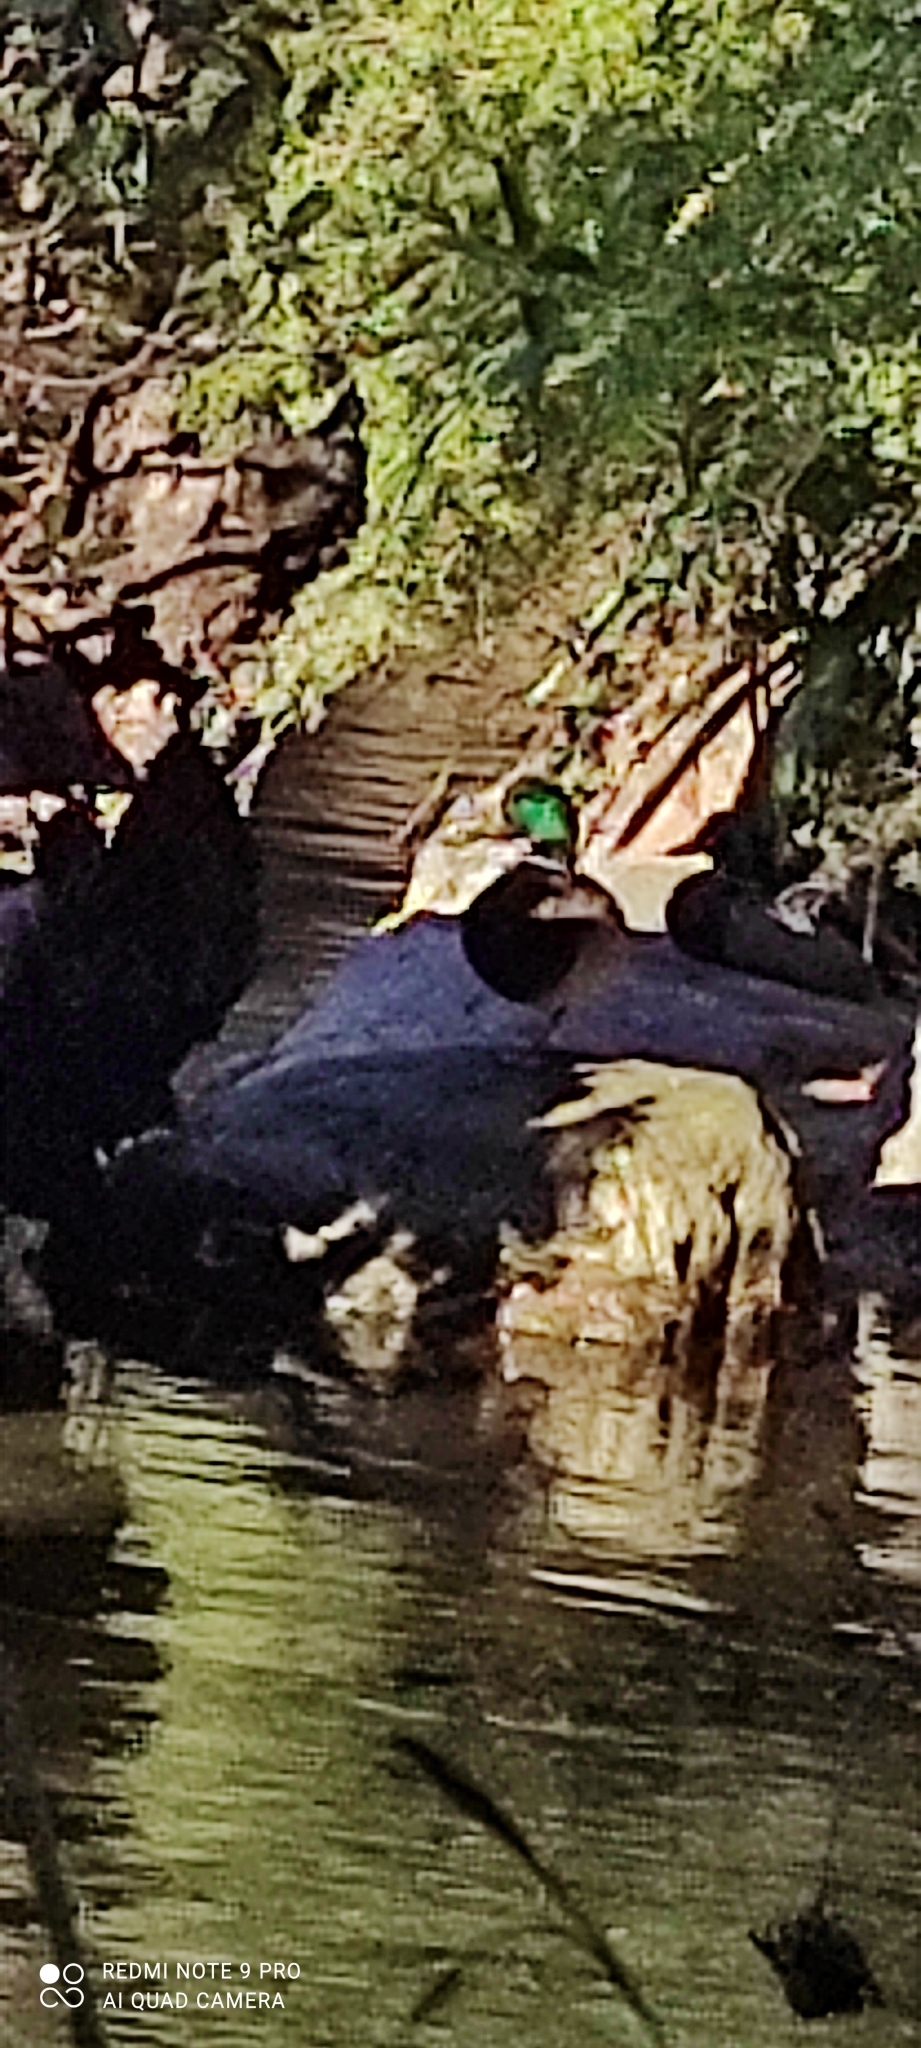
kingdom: Animalia
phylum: Chordata
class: Aves
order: Anseriformes
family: Anatidae
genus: Anas
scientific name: Anas platyrhynchos
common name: Mallard
